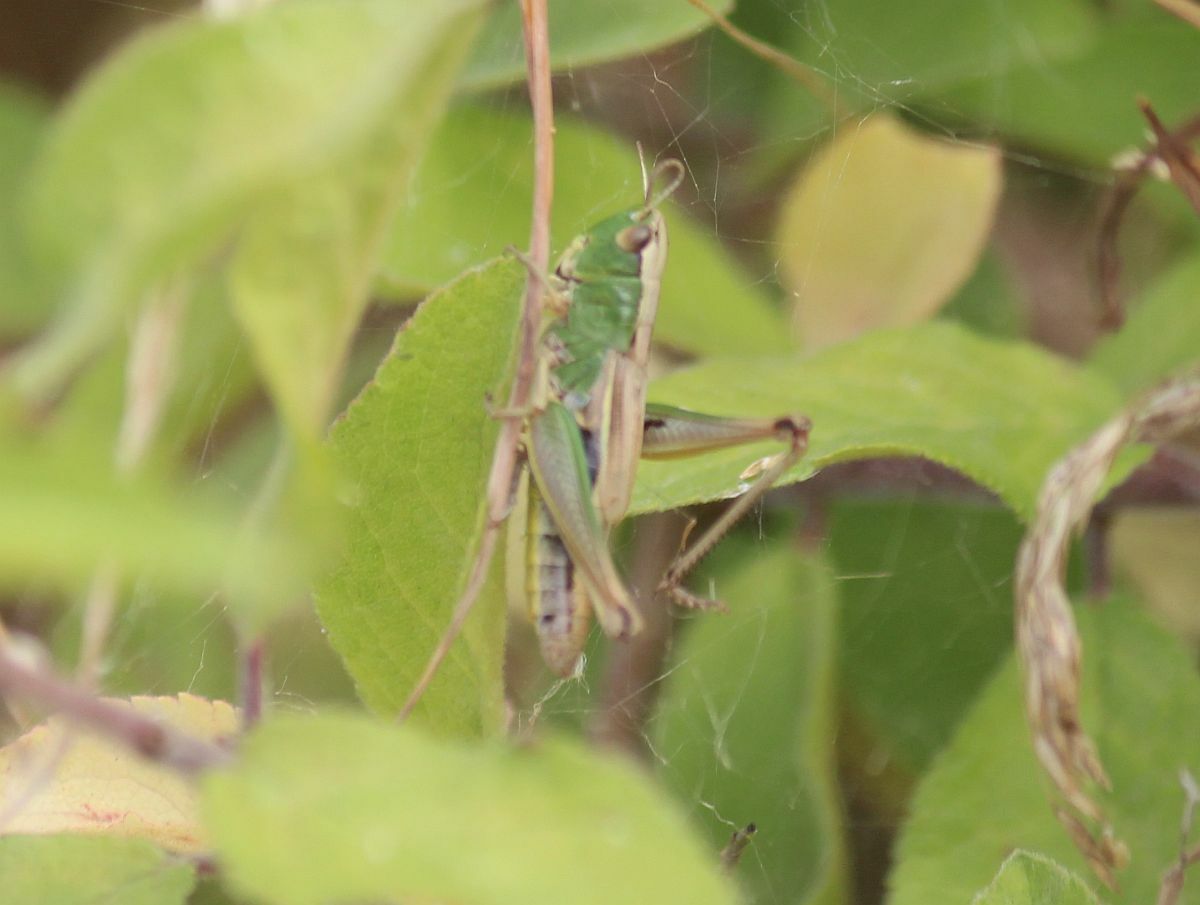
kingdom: Animalia
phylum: Arthropoda
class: Insecta
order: Orthoptera
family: Acrididae
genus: Pseudochorthippus
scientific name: Pseudochorthippus parallelus
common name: Meadow grasshopper
